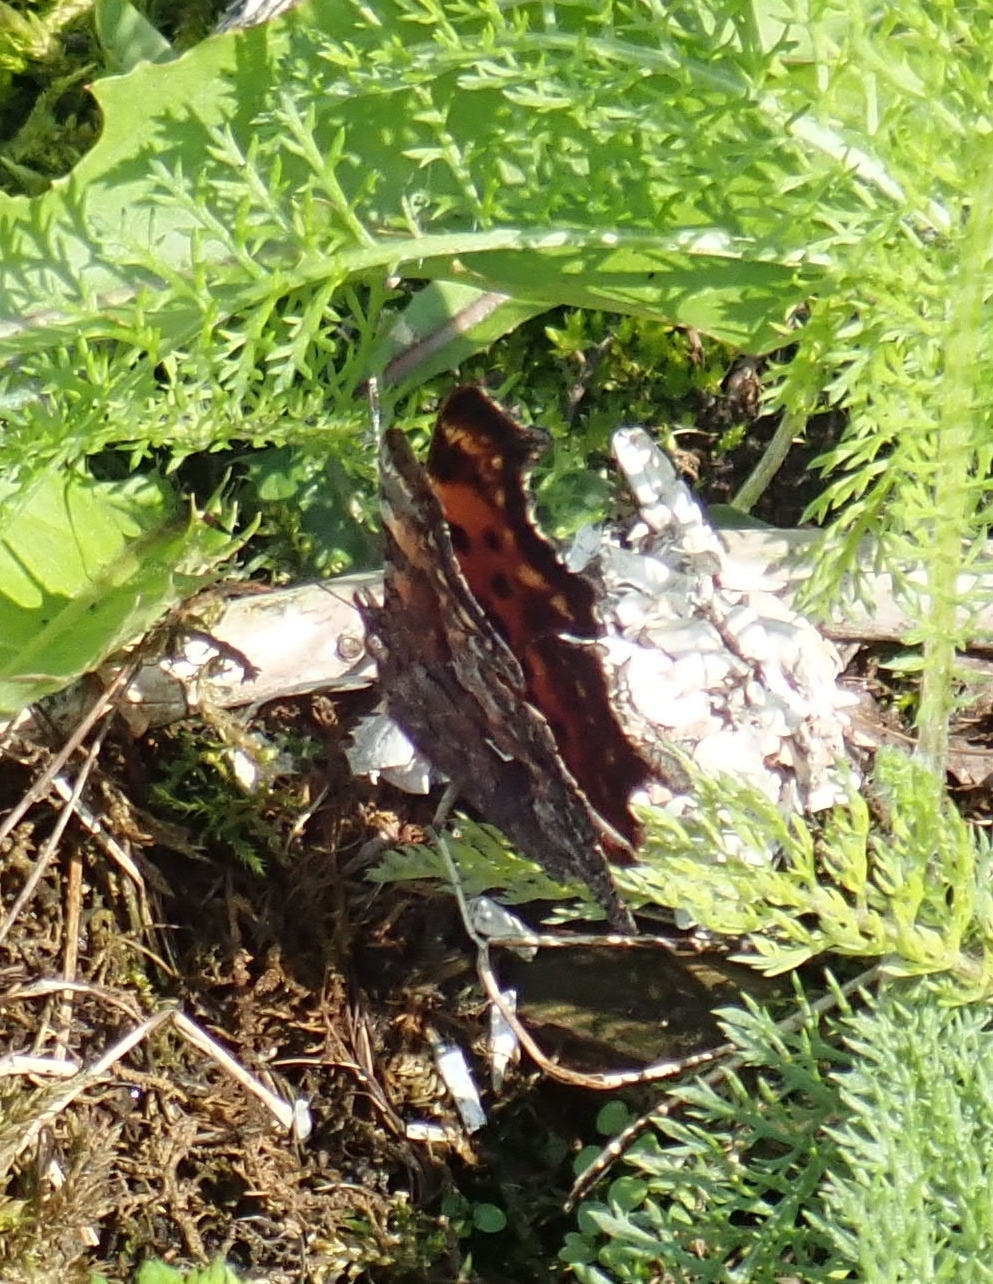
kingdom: Animalia
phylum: Arthropoda
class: Insecta
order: Lepidoptera
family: Nymphalidae
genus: Polygonia
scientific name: Polygonia faunus
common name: Green comma
